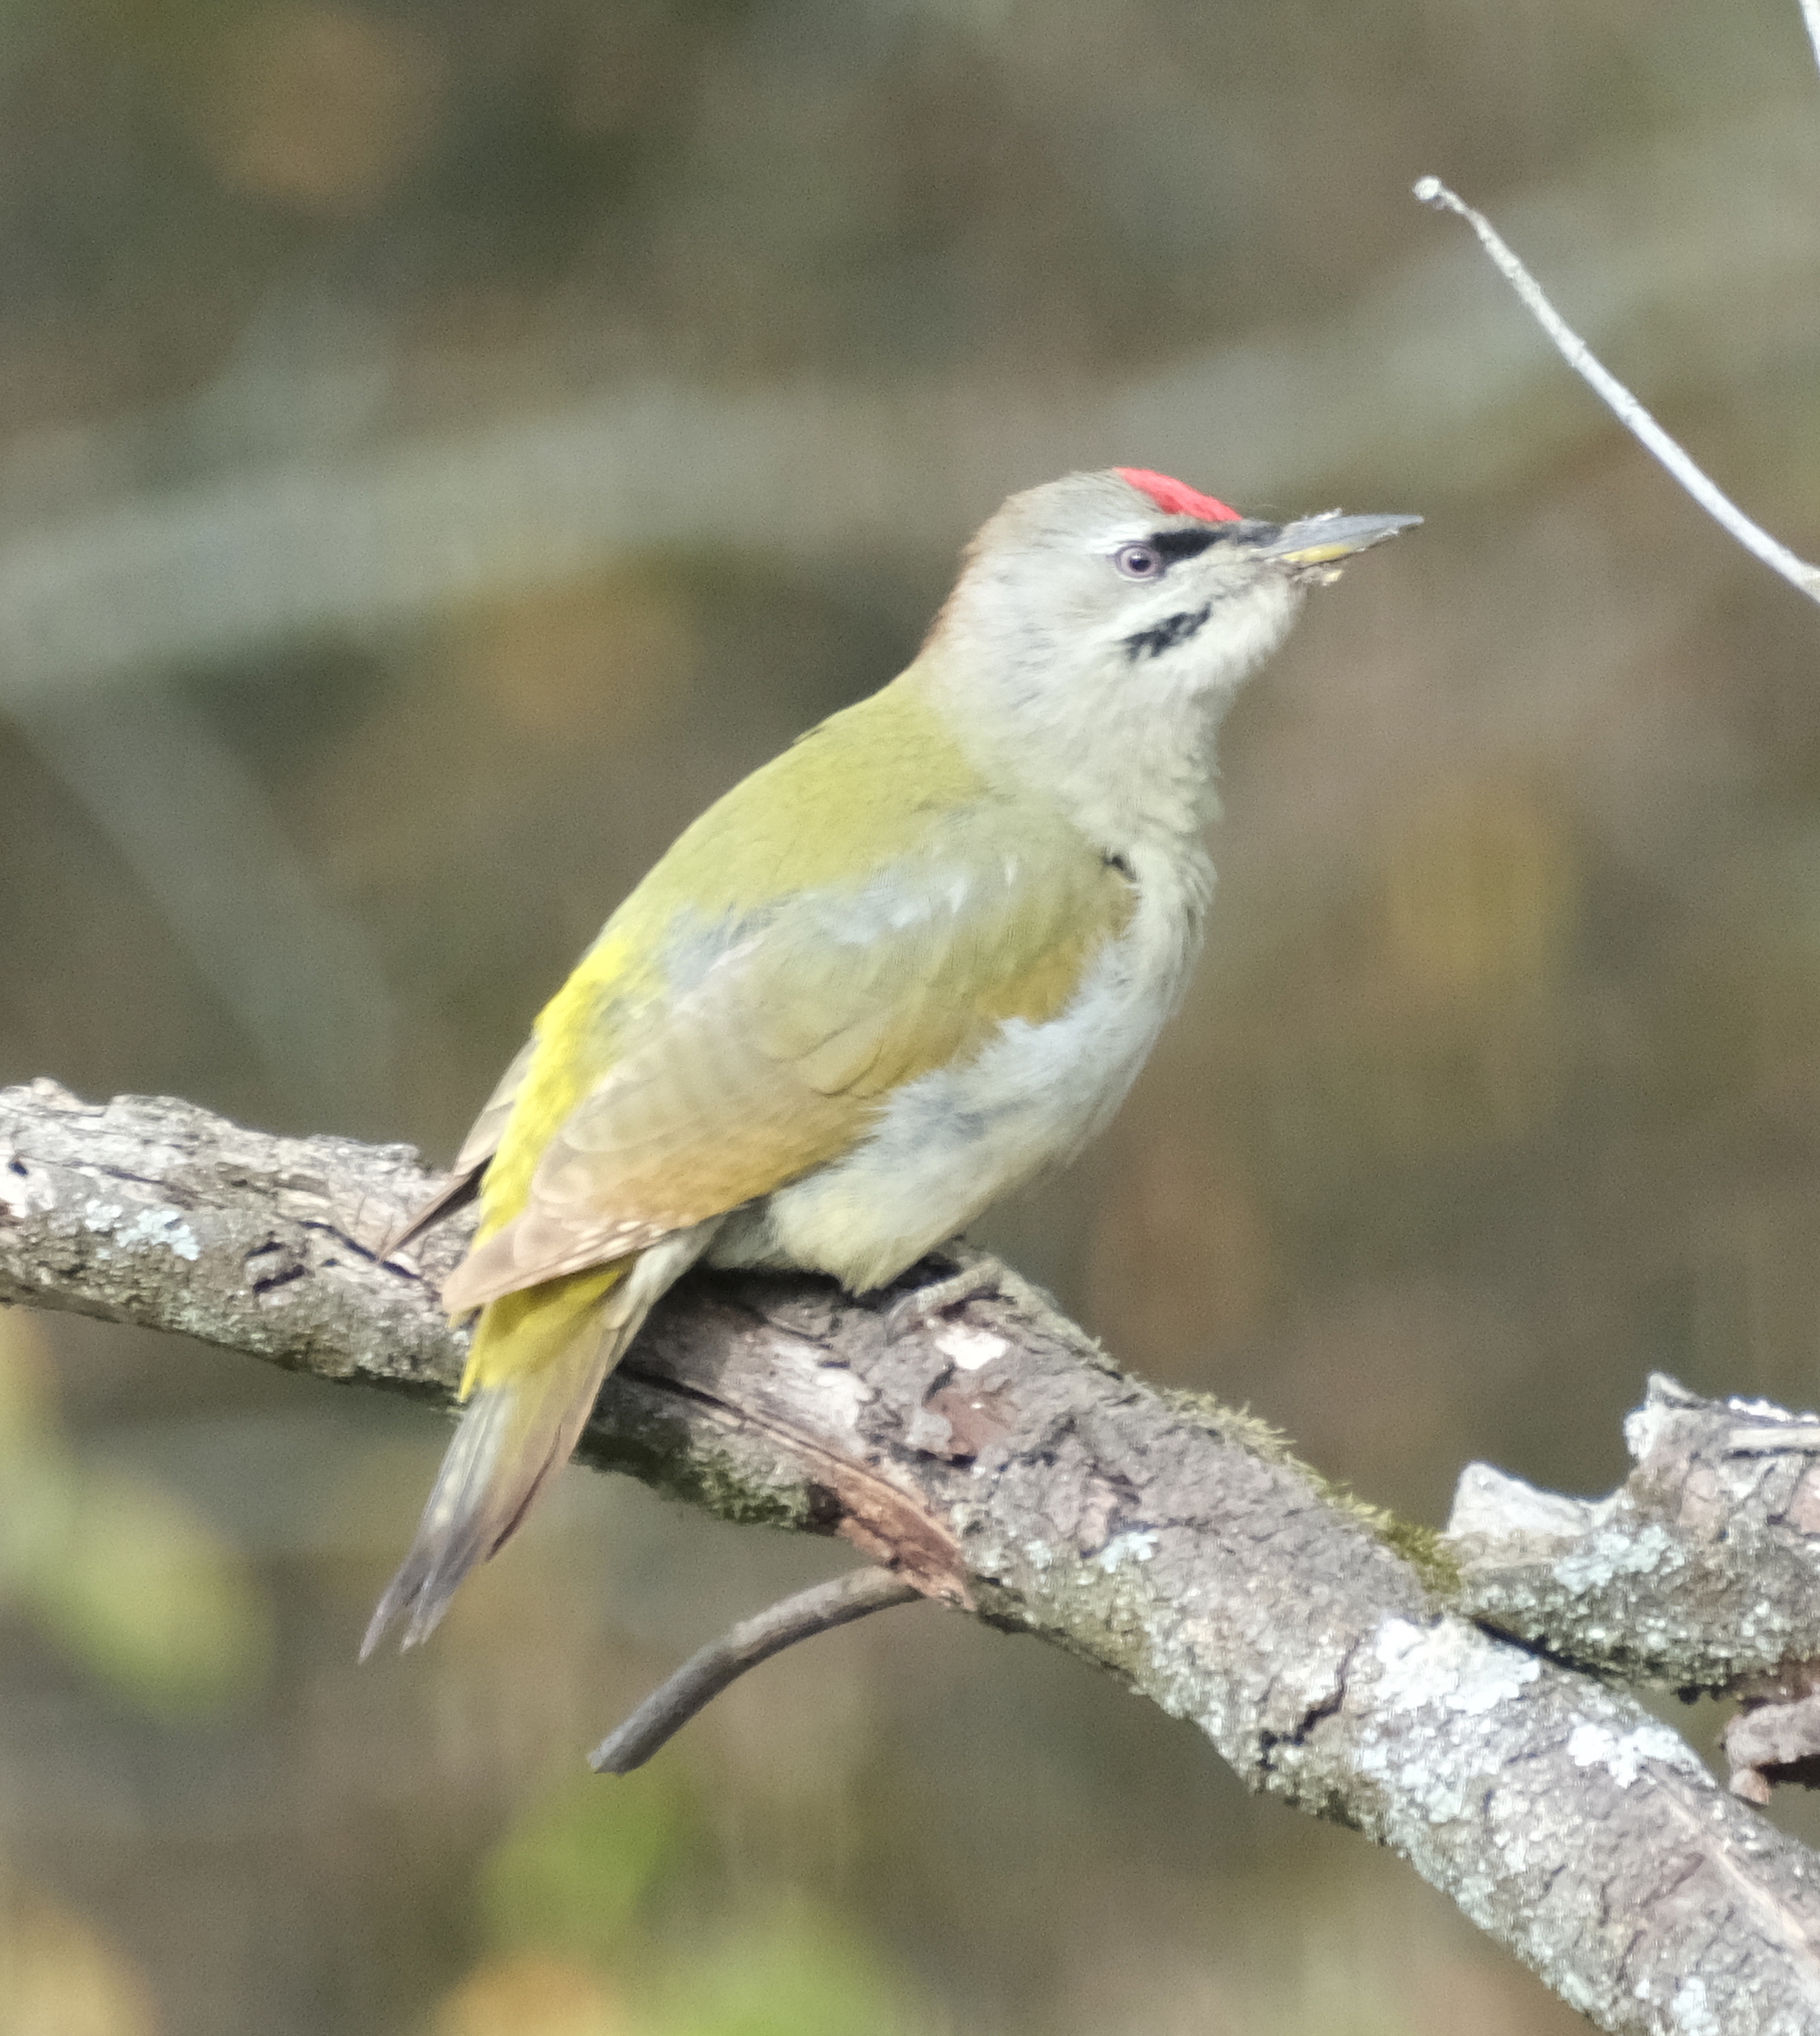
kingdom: Animalia
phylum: Chordata
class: Aves
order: Piciformes
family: Picidae
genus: Picus
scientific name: Picus canus
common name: Grey-headed woodpecker
